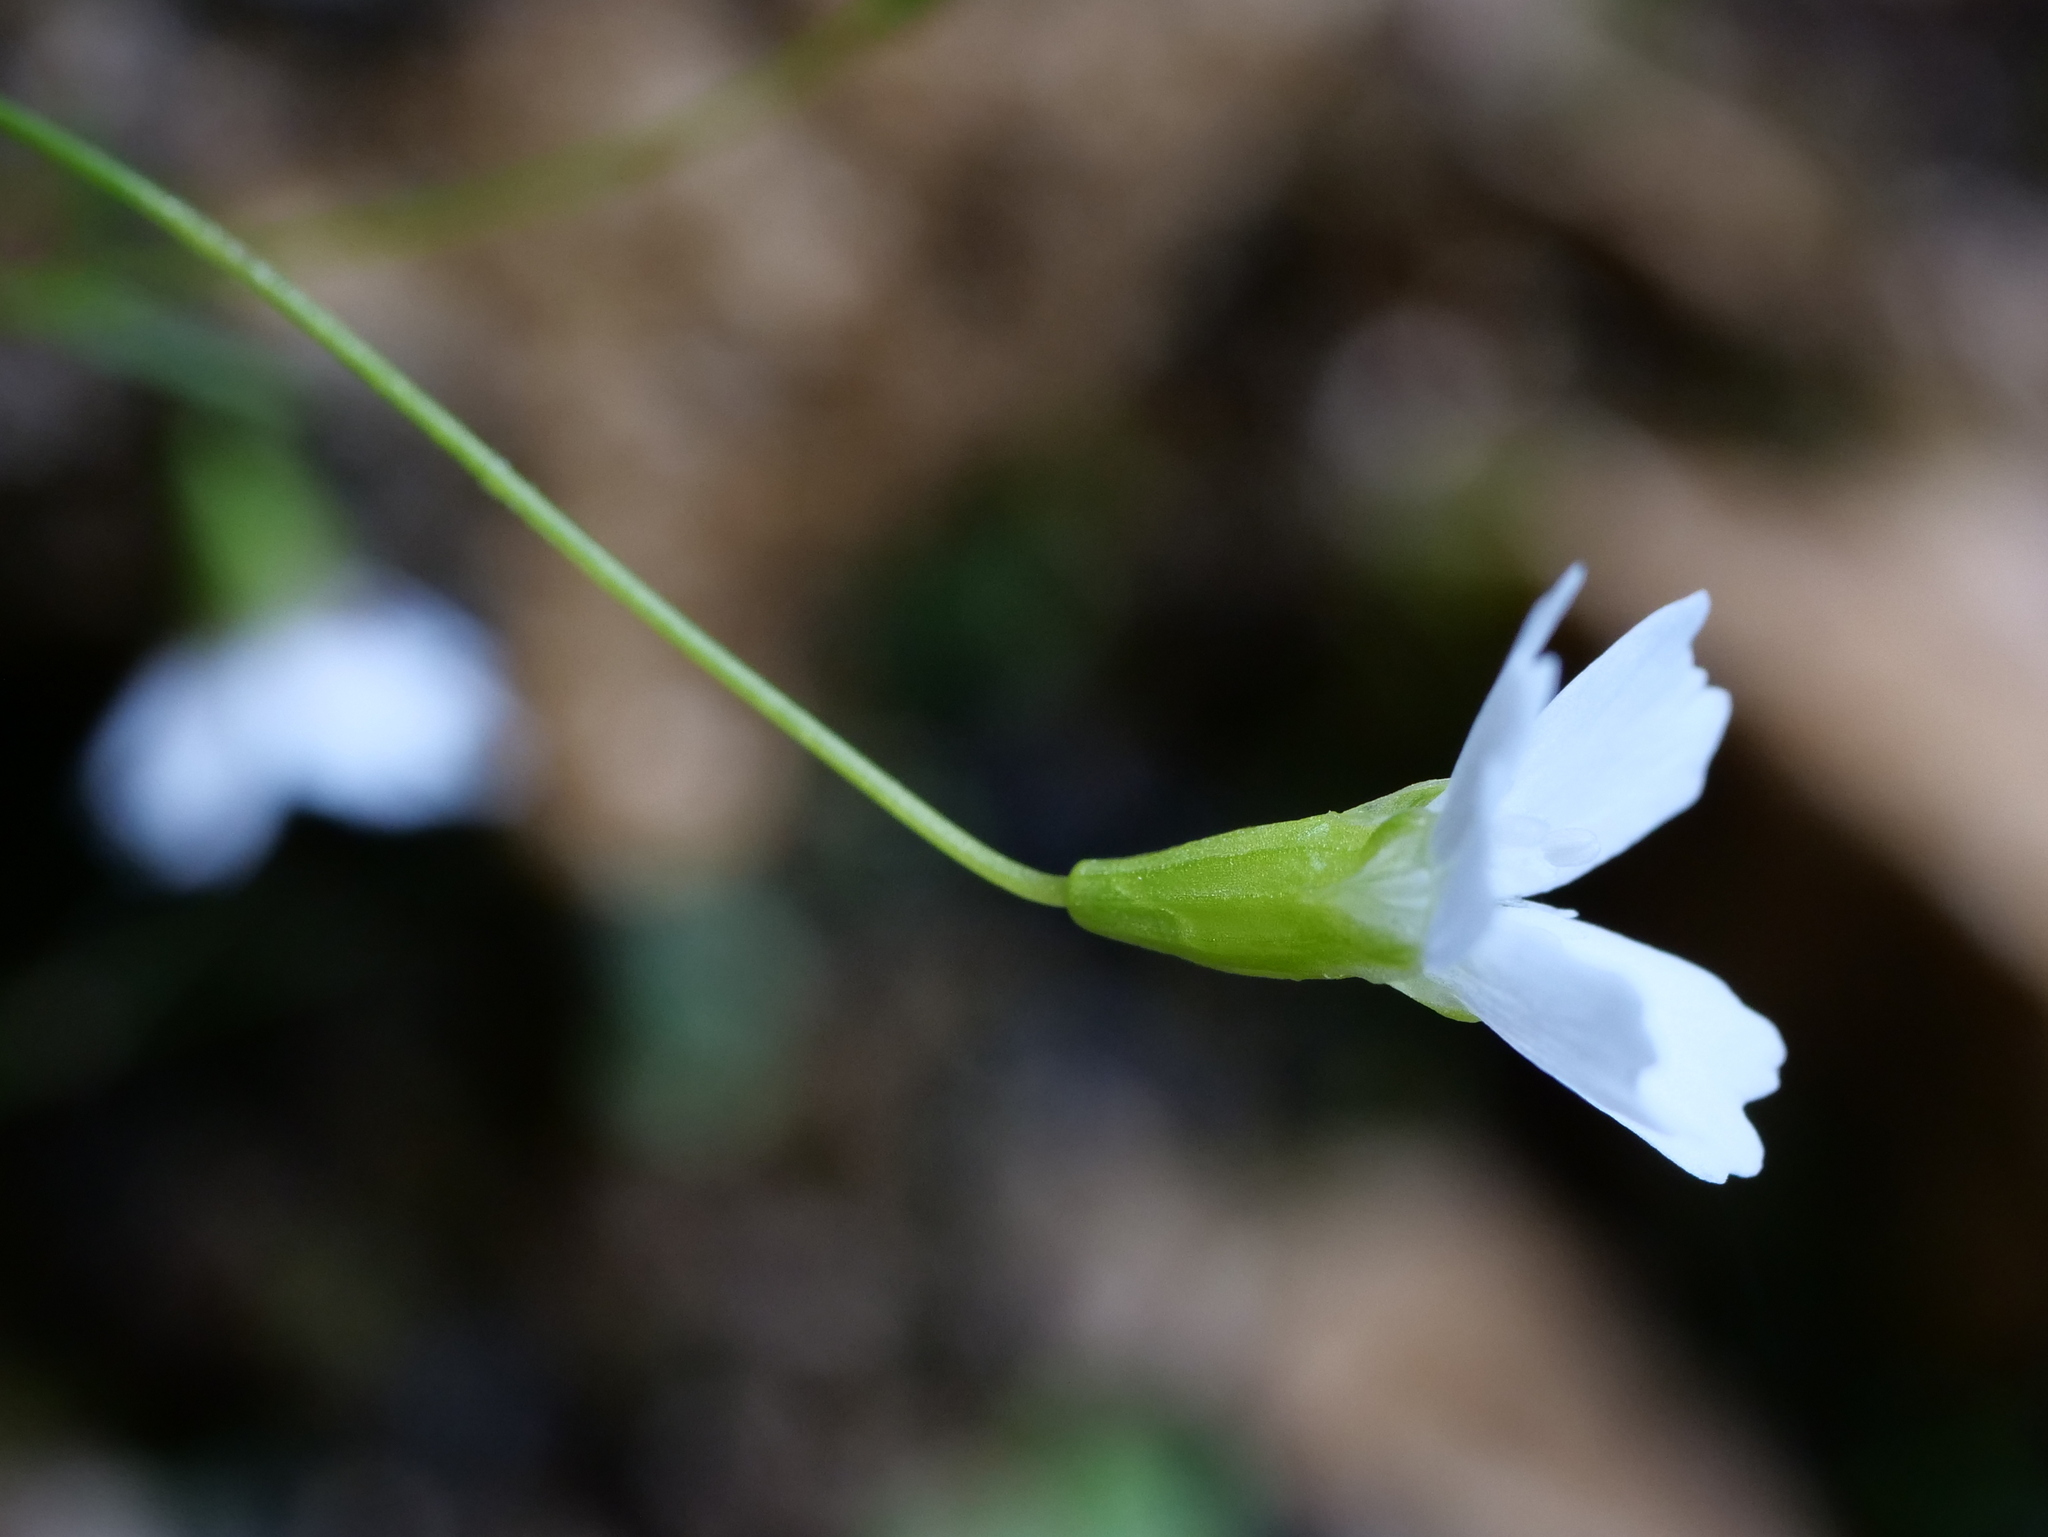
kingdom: Plantae
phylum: Tracheophyta
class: Magnoliopsida
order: Caryophyllales
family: Caryophyllaceae
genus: Heliosperma
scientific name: Heliosperma pusillum
